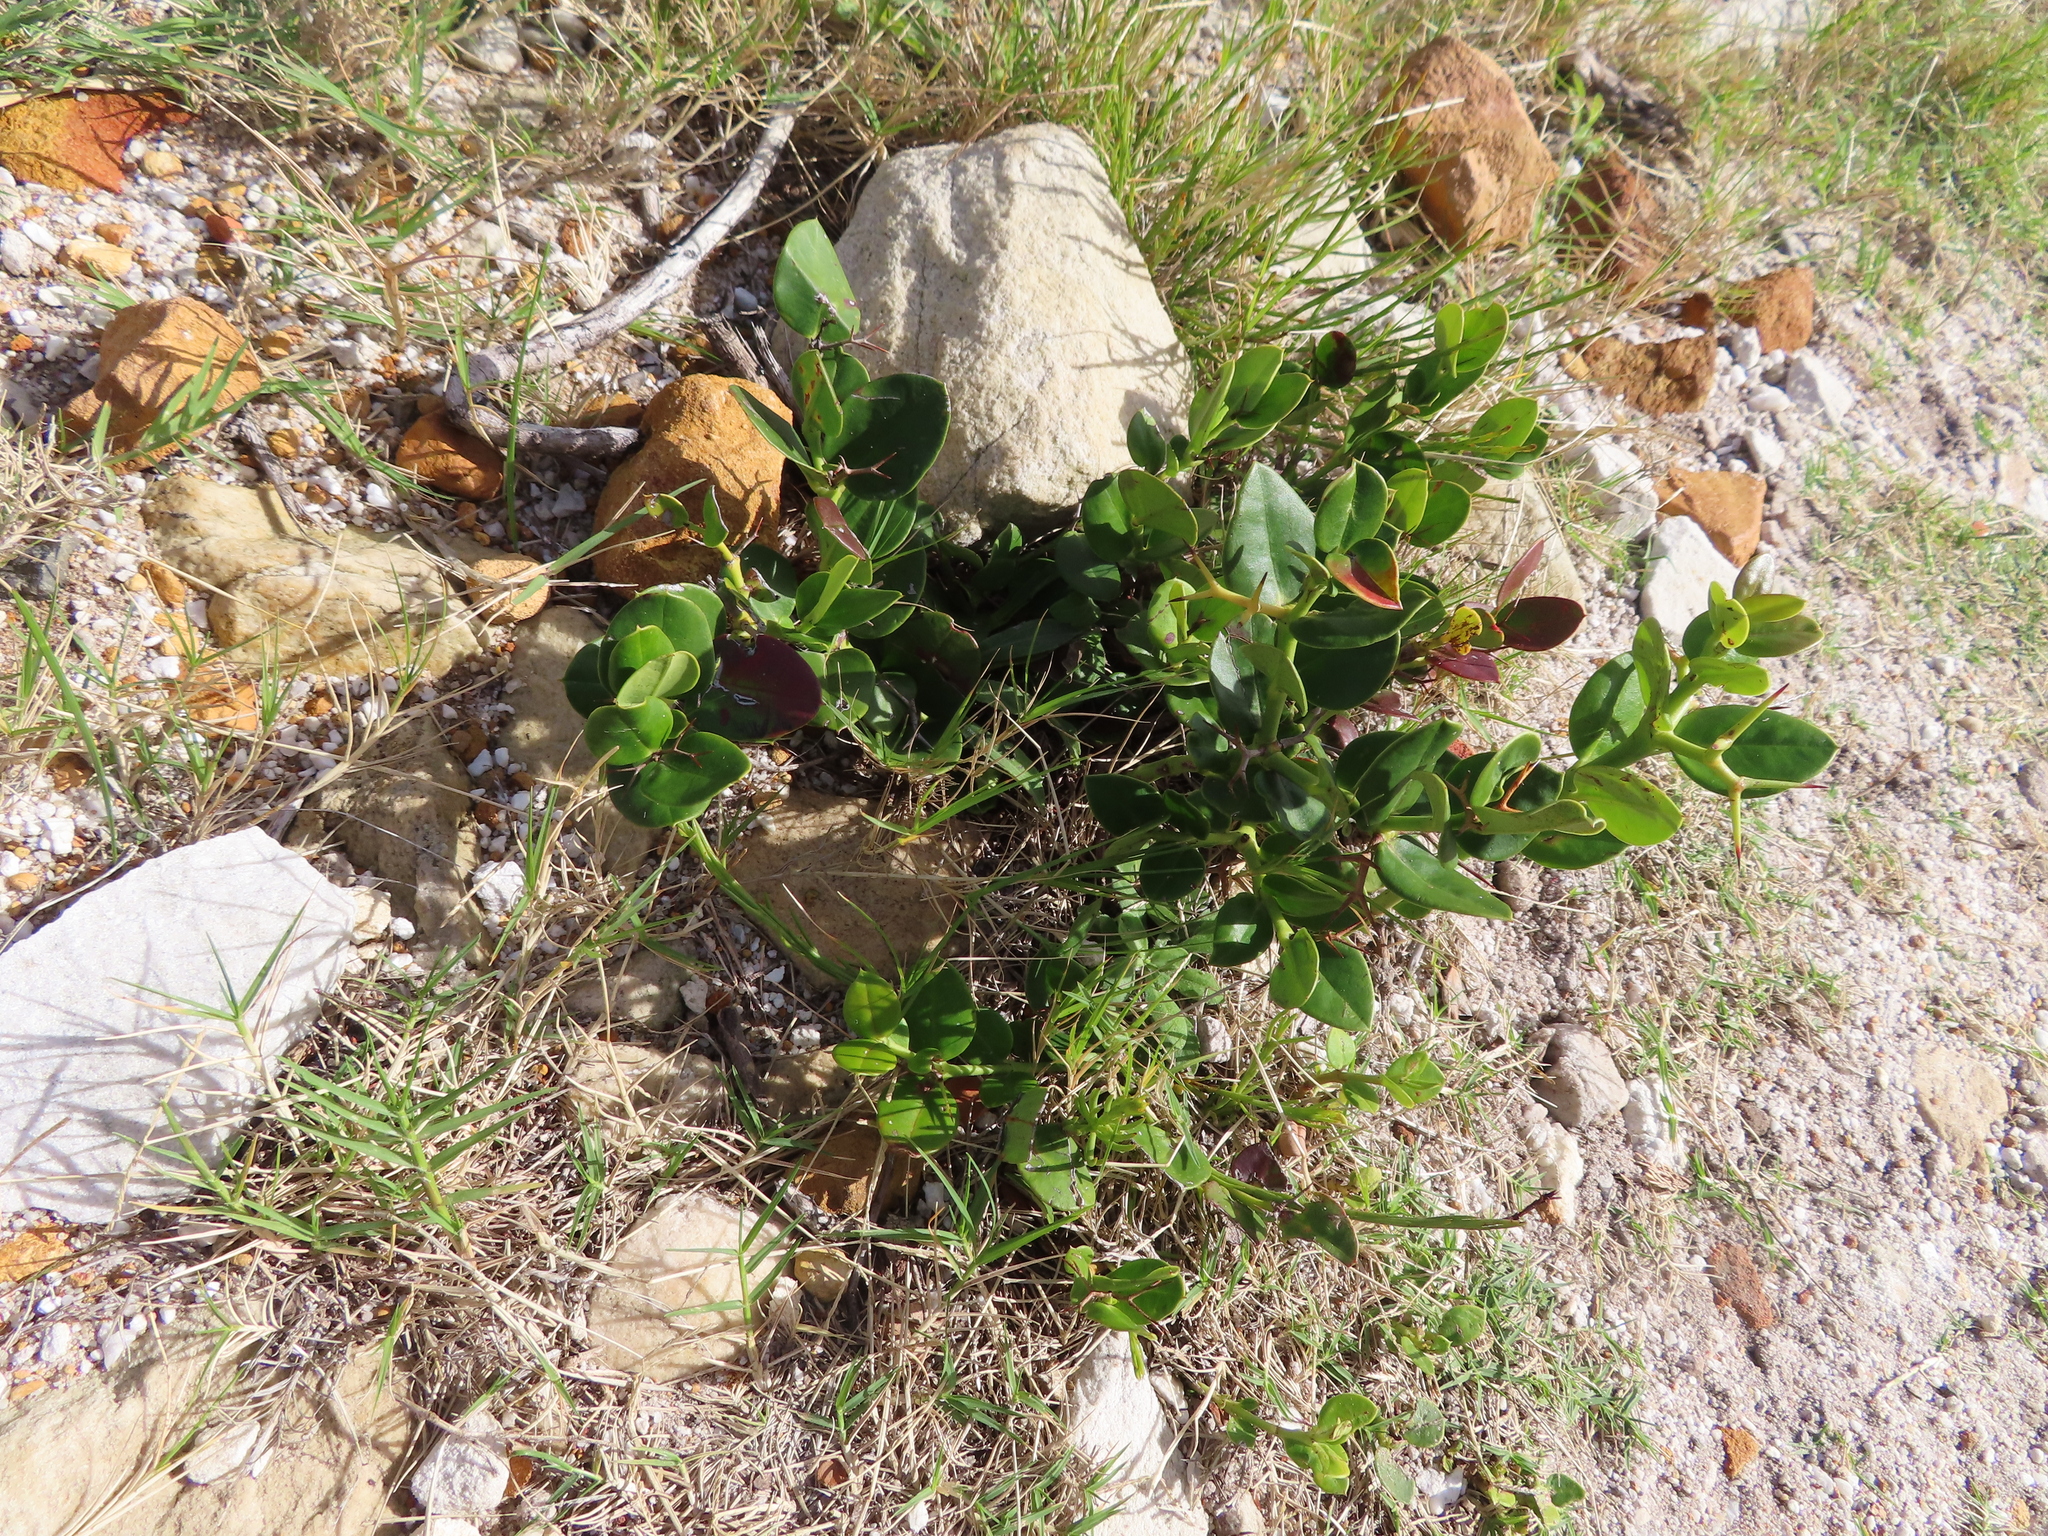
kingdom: Plantae
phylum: Tracheophyta
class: Magnoliopsida
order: Gentianales
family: Apocynaceae
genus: Carissa
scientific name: Carissa macrocarpa
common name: Natal plum
